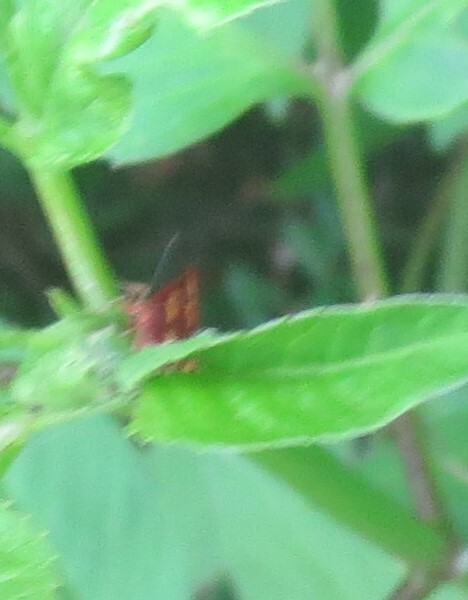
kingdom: Animalia
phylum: Arthropoda
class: Insecta
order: Lepidoptera
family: Crambidae
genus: Pyrausta
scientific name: Pyrausta tyralis
